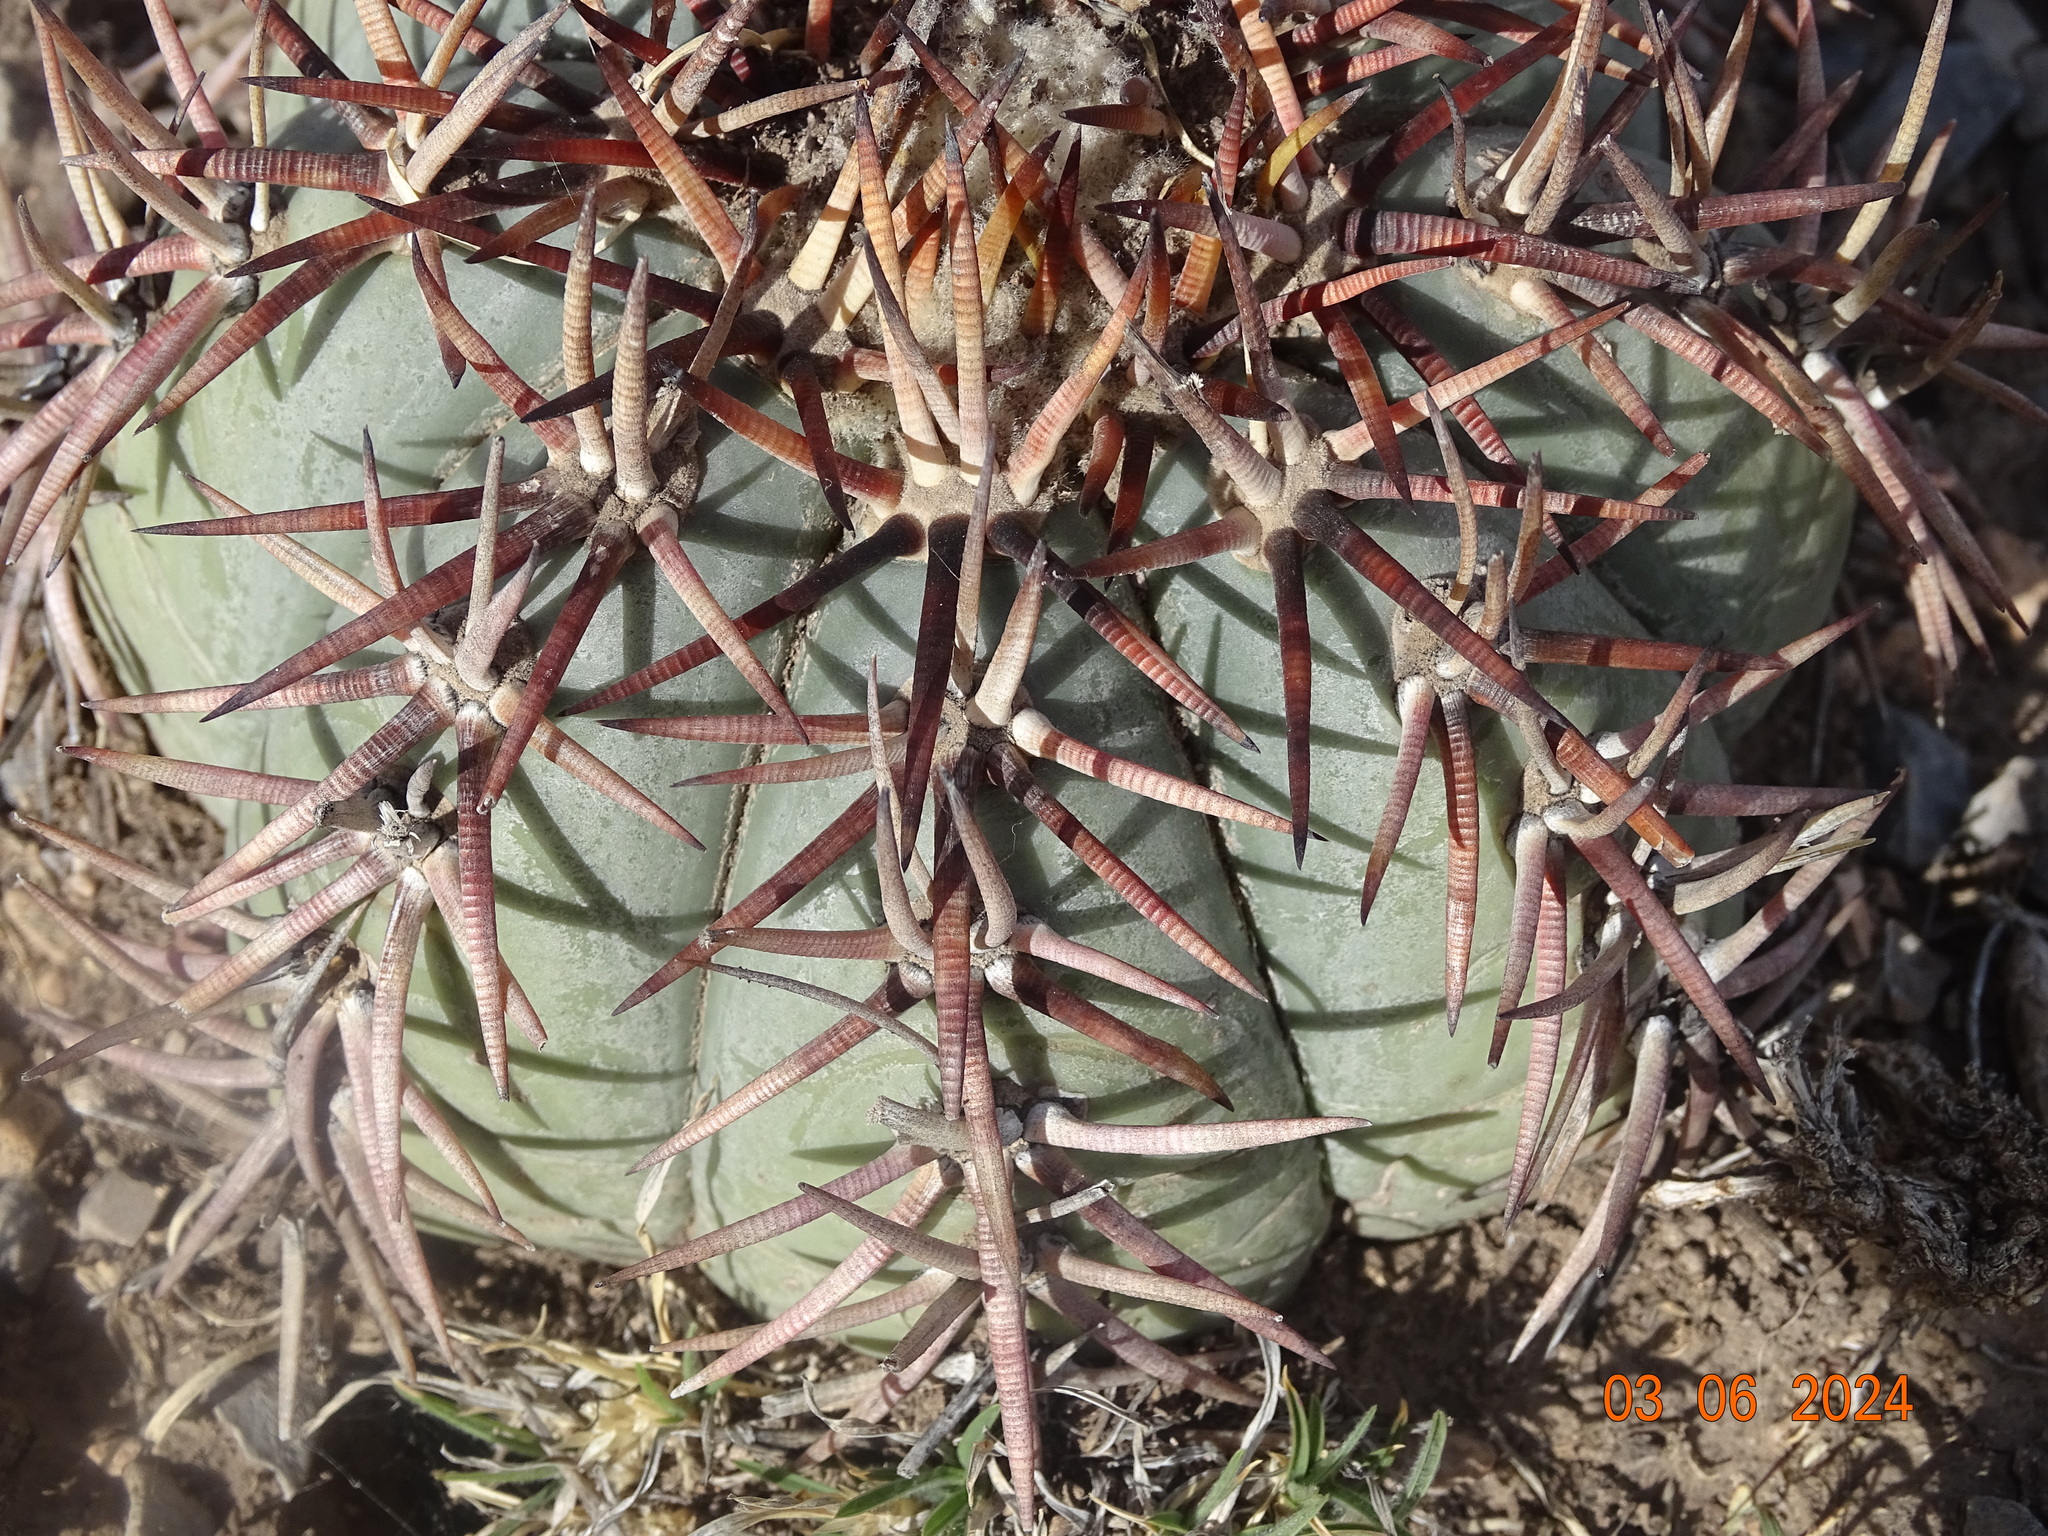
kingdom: Plantae
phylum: Tracheophyta
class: Magnoliopsida
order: Caryophyllales
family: Cactaceae
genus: Echinocactus
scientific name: Echinocactus horizonthalonius
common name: Devilshead
